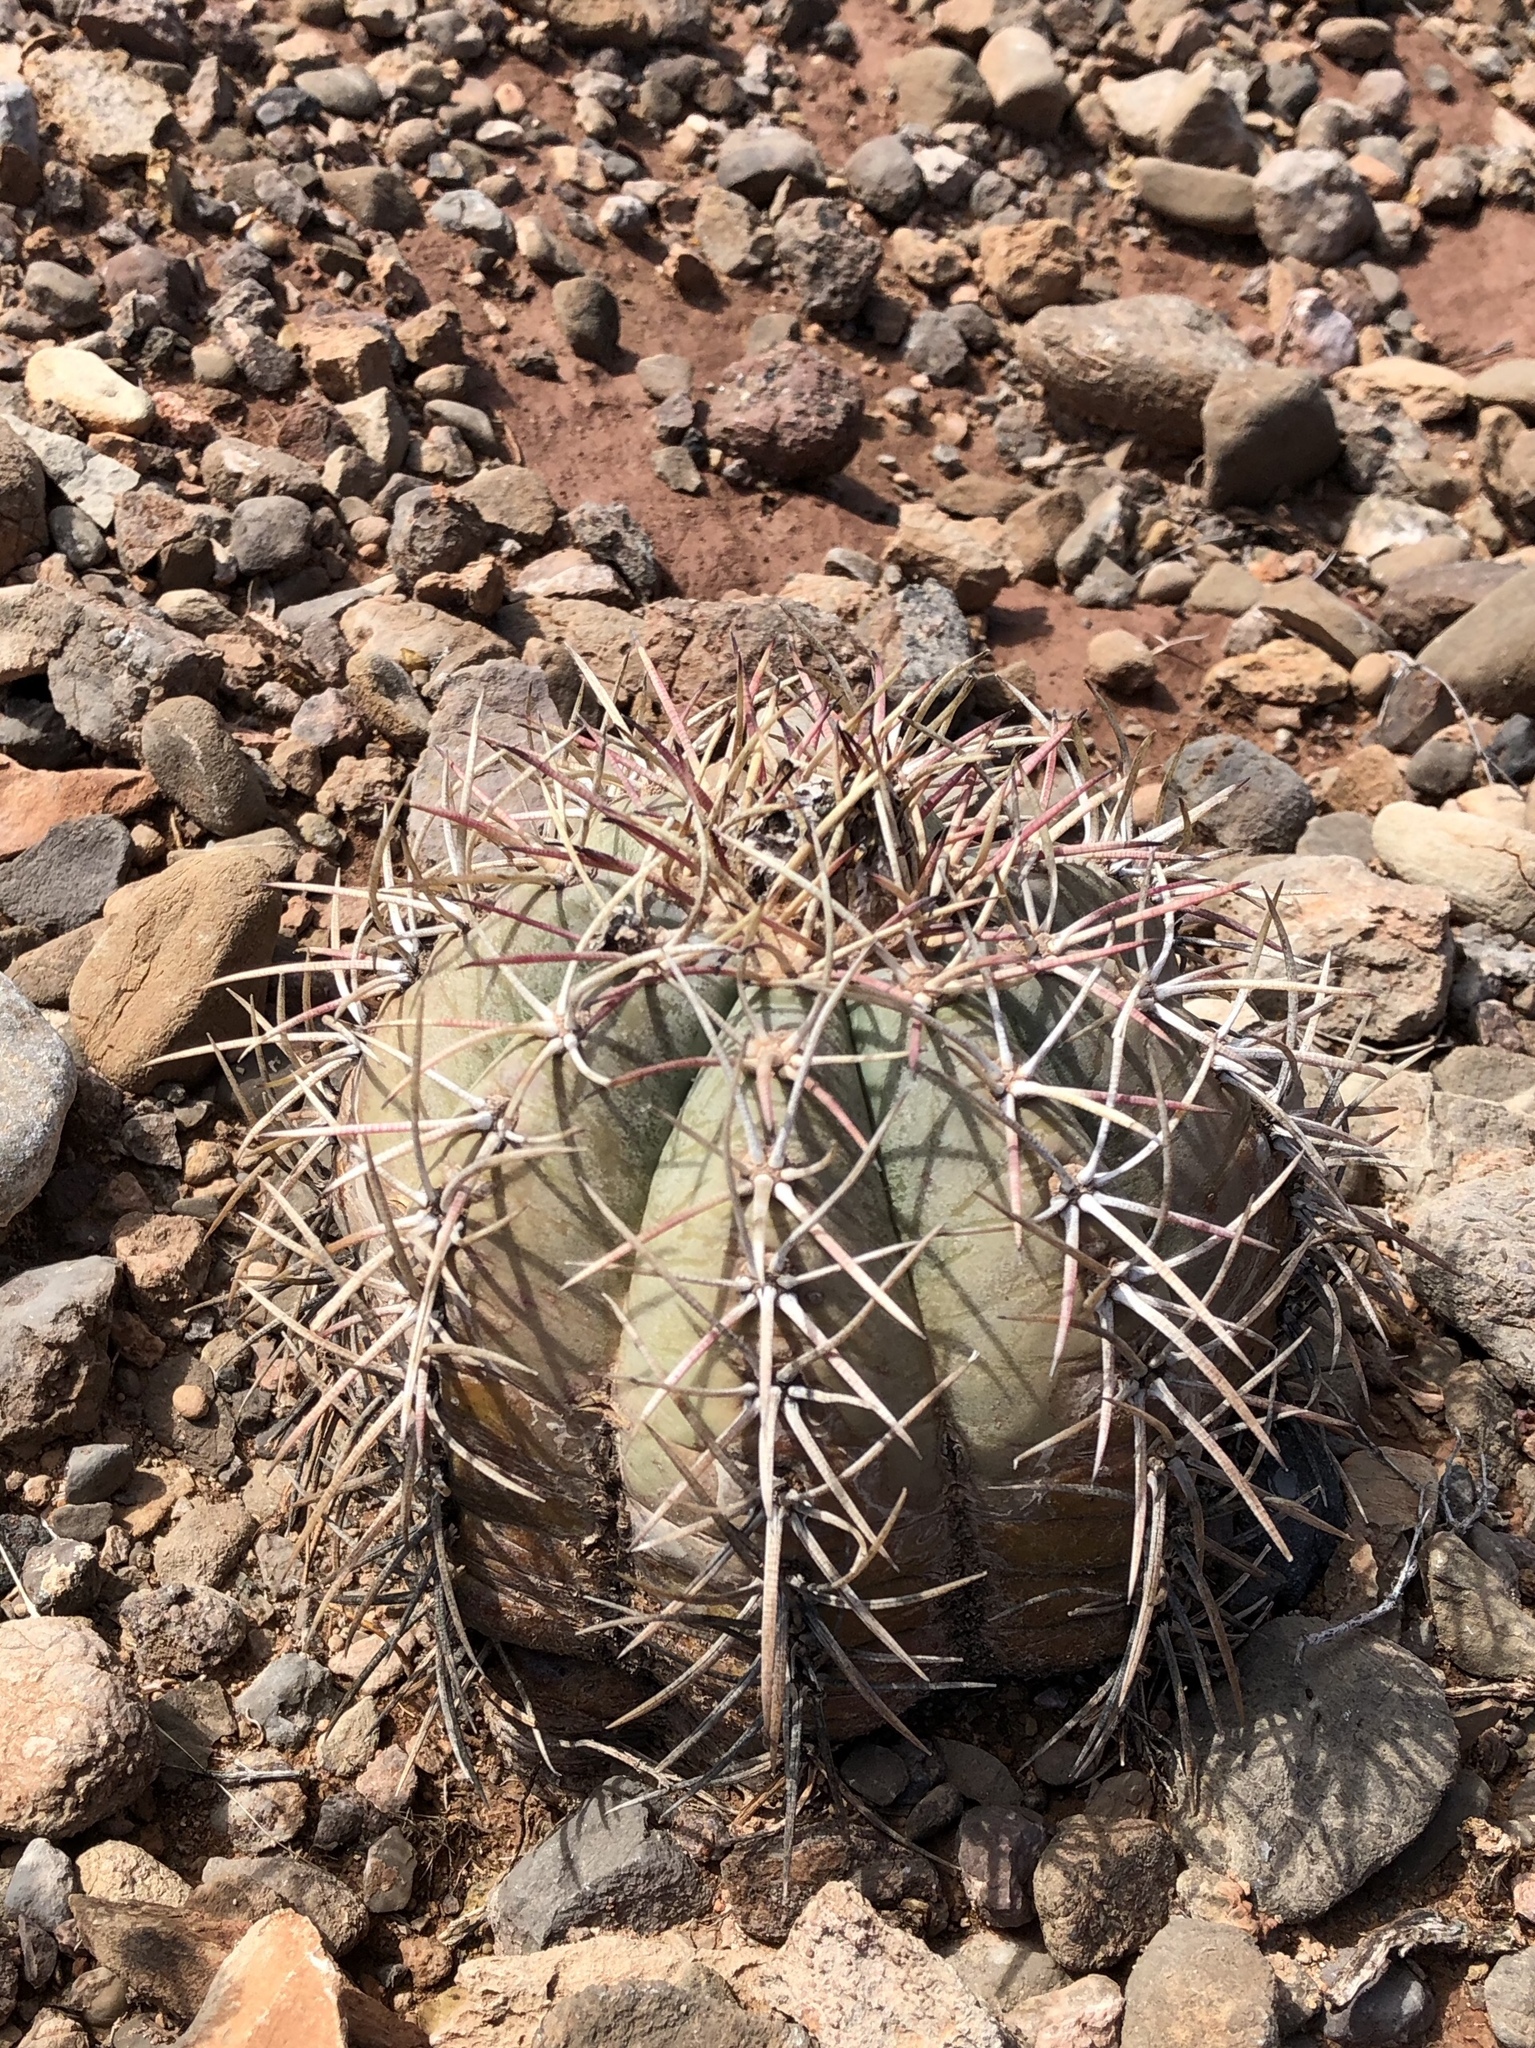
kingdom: Plantae
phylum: Tracheophyta
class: Magnoliopsida
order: Caryophyllales
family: Cactaceae
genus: Echinocactus
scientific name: Echinocactus horizonthalonius
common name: Devilshead
